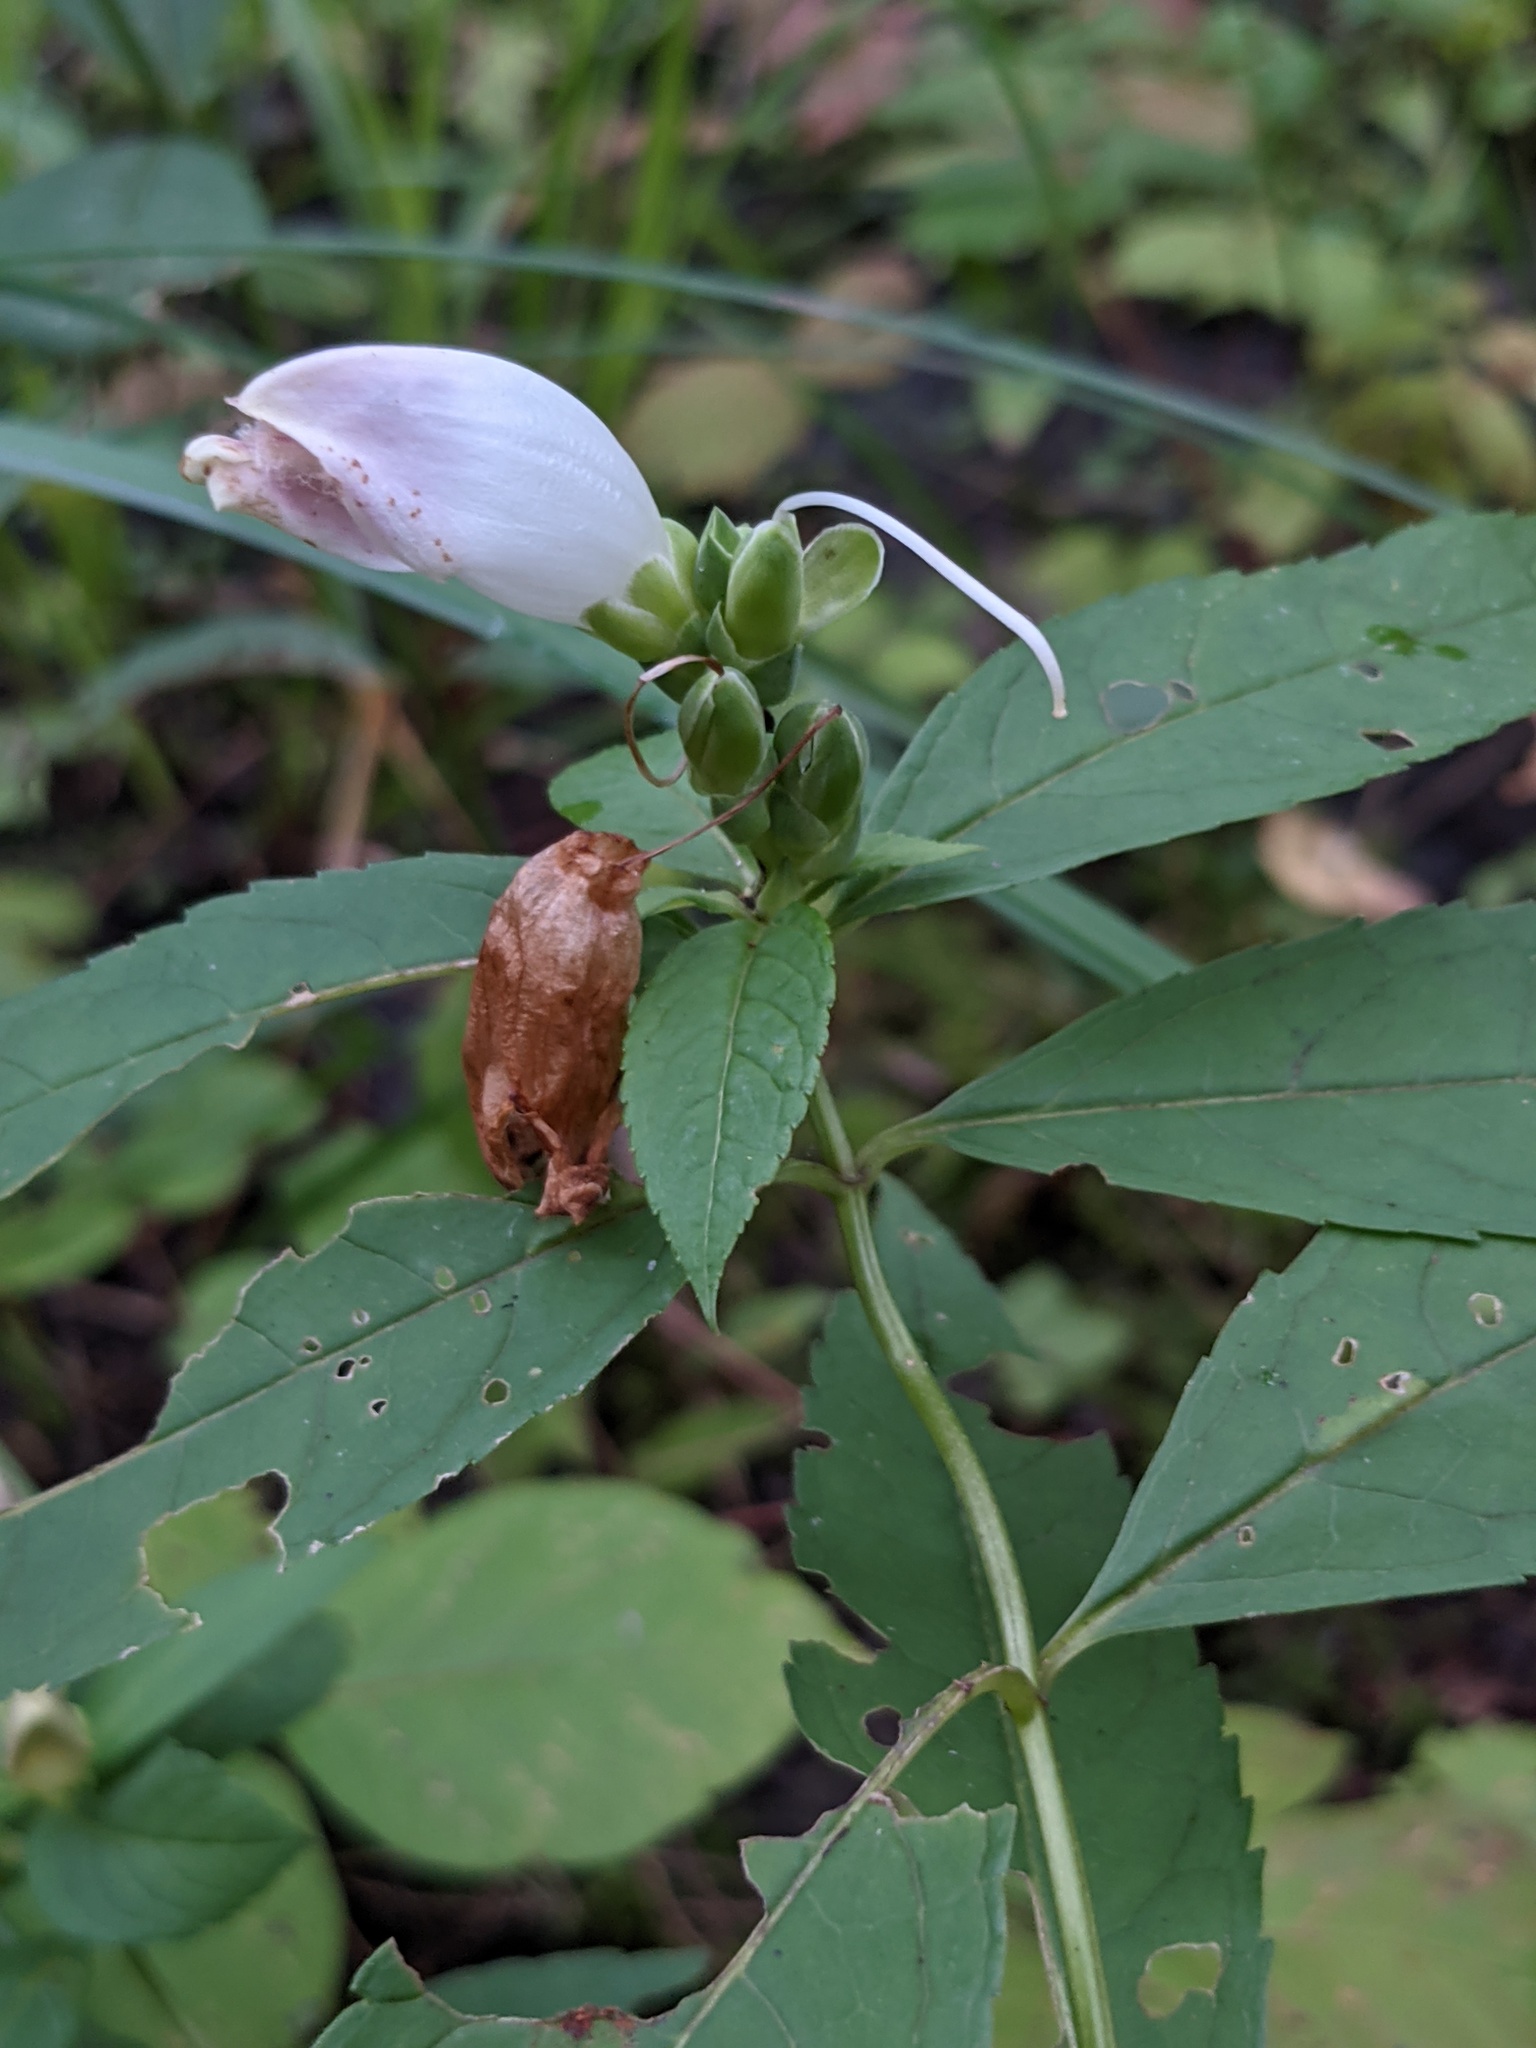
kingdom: Plantae
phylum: Tracheophyta
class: Magnoliopsida
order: Lamiales
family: Plantaginaceae
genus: Chelone
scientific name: Chelone glabra
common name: Snakehead
